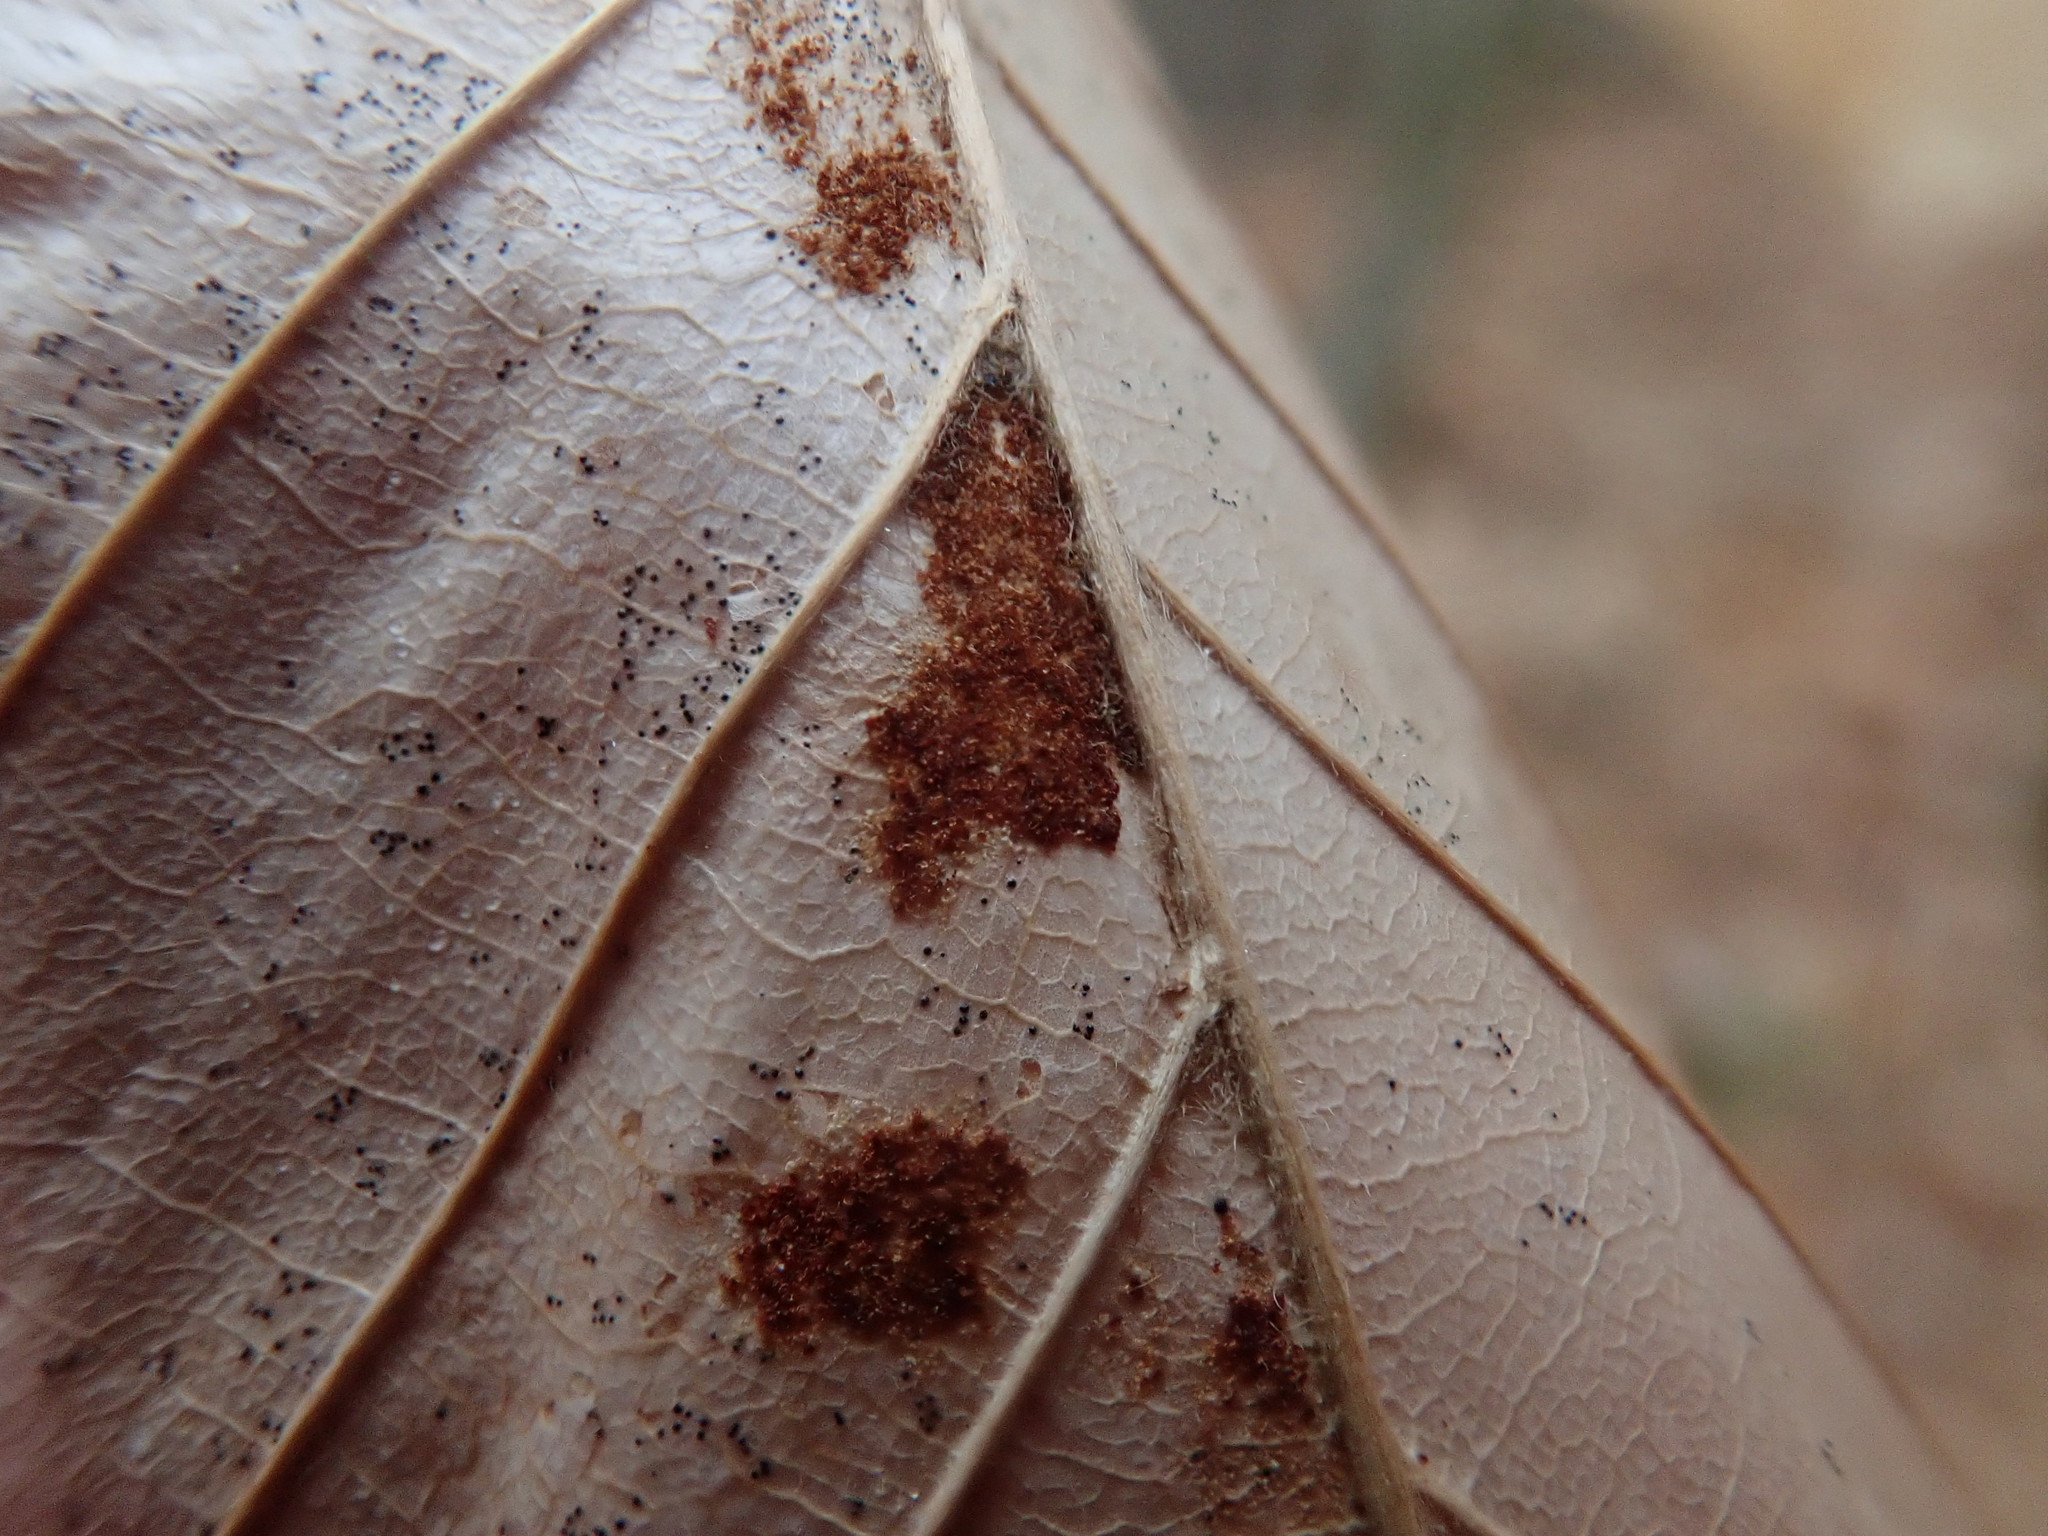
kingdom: Animalia
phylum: Arthropoda
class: Arachnida
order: Trombidiformes
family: Eriophyidae
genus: Acalitus
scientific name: Acalitus
